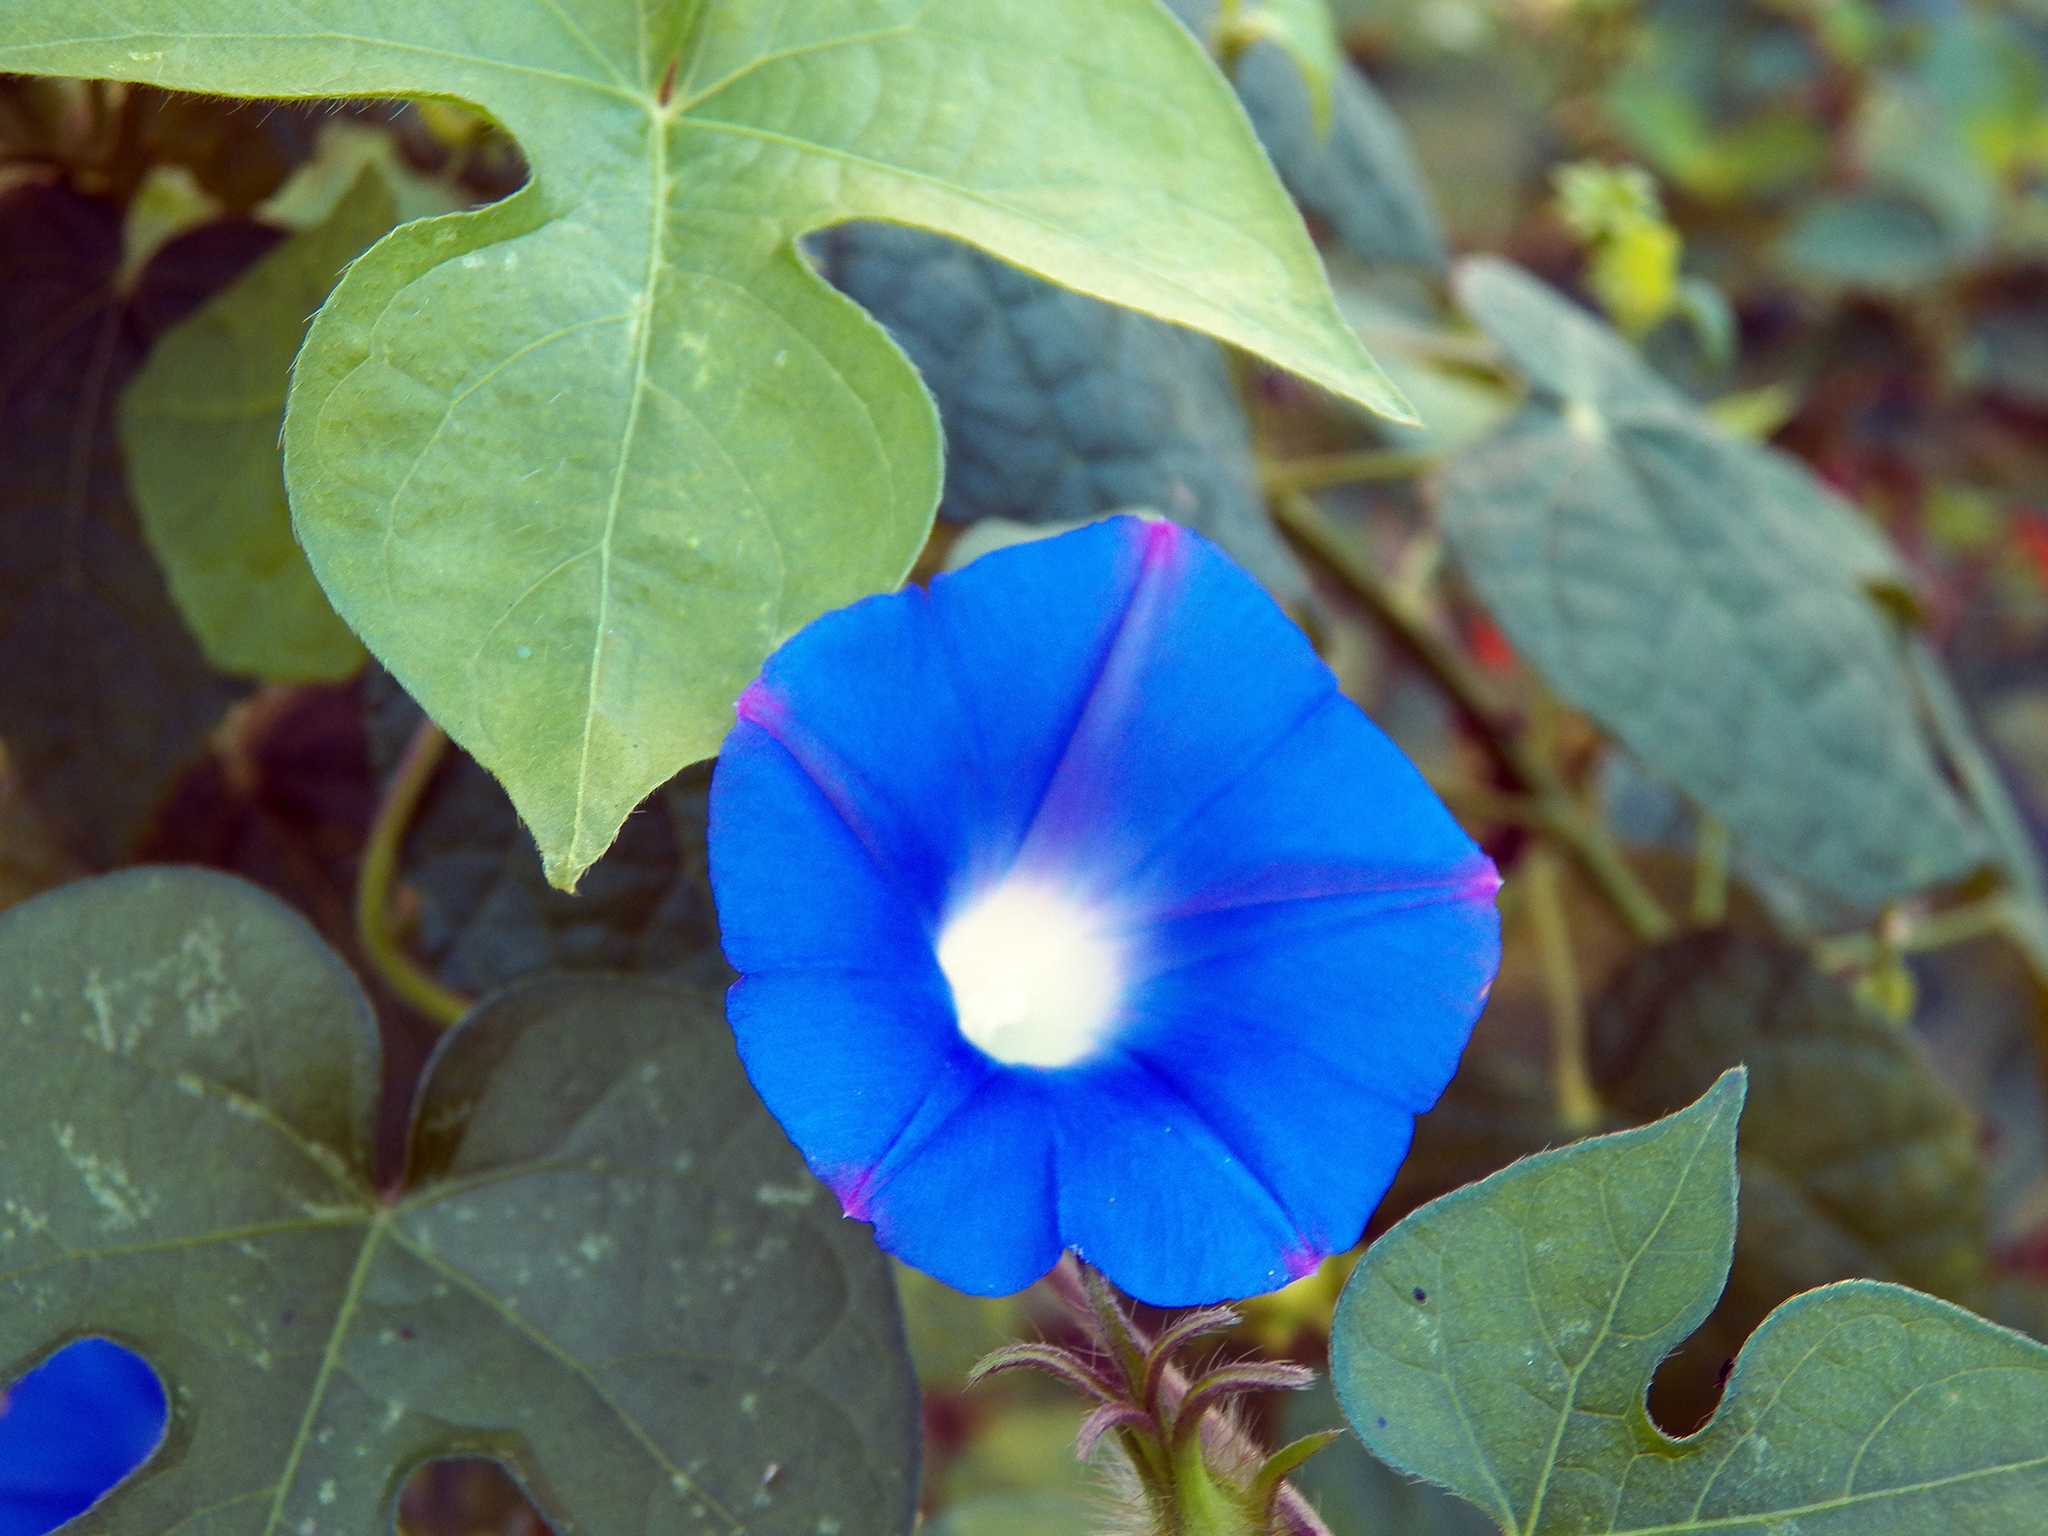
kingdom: Plantae
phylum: Tracheophyta
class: Magnoliopsida
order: Solanales
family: Convolvulaceae
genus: Ipomoea
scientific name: Ipomoea hederacea
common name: Ivy-leaved morning-glory
